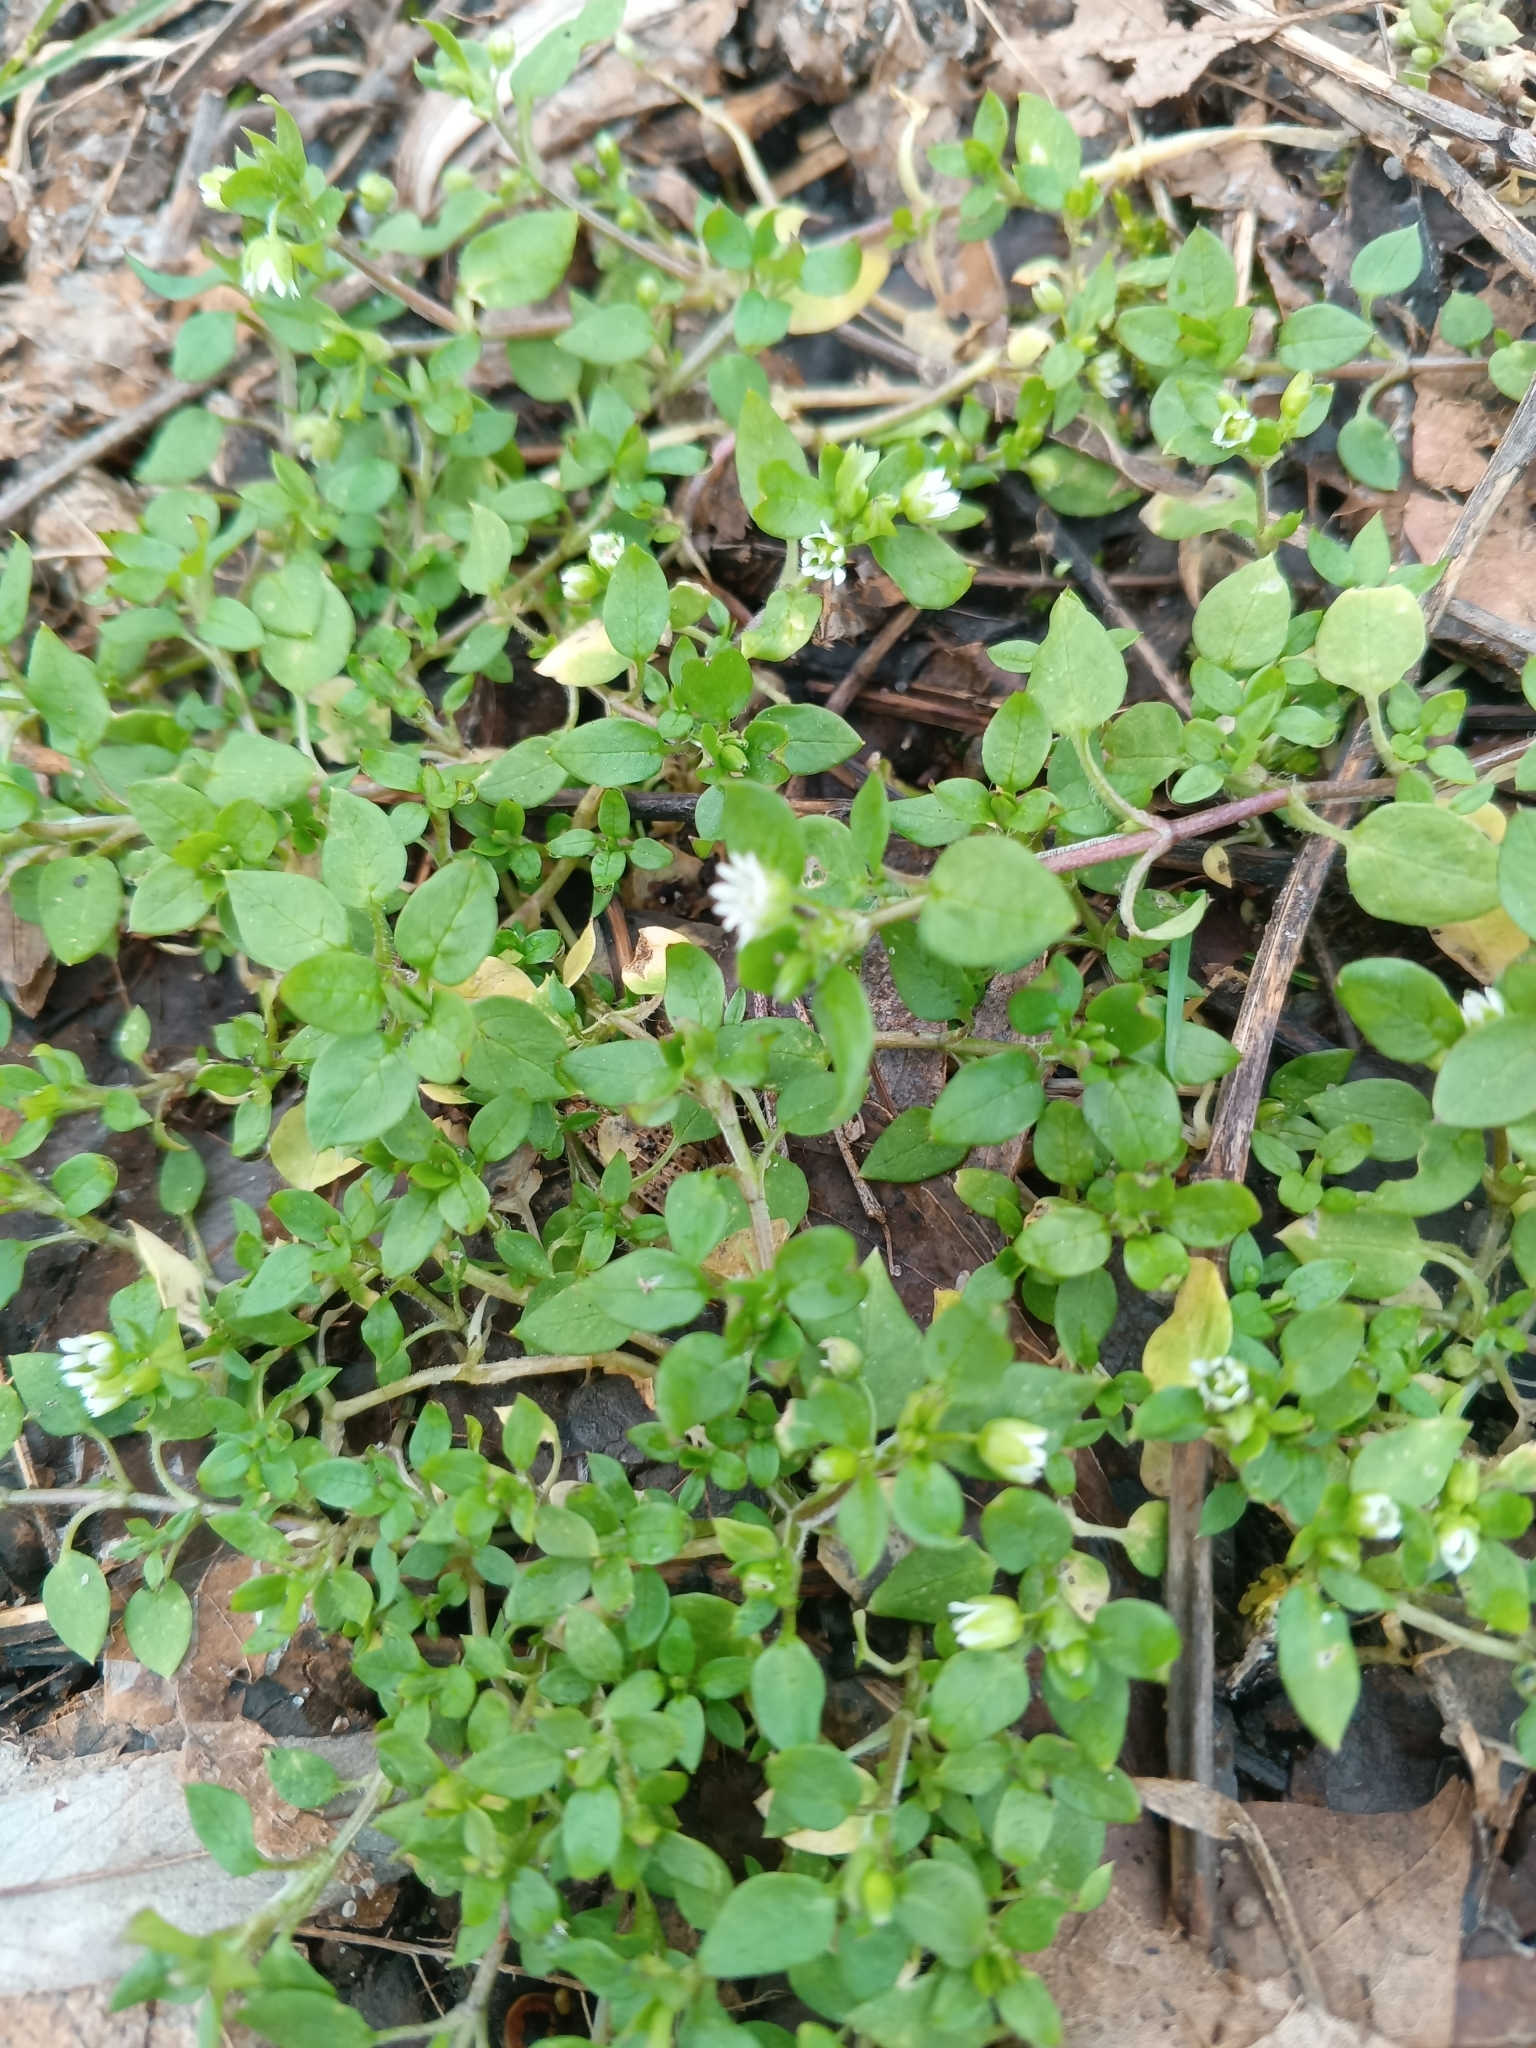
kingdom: Plantae
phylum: Tracheophyta
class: Magnoliopsida
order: Caryophyllales
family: Caryophyllaceae
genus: Stellaria
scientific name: Stellaria media
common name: Common chickweed
